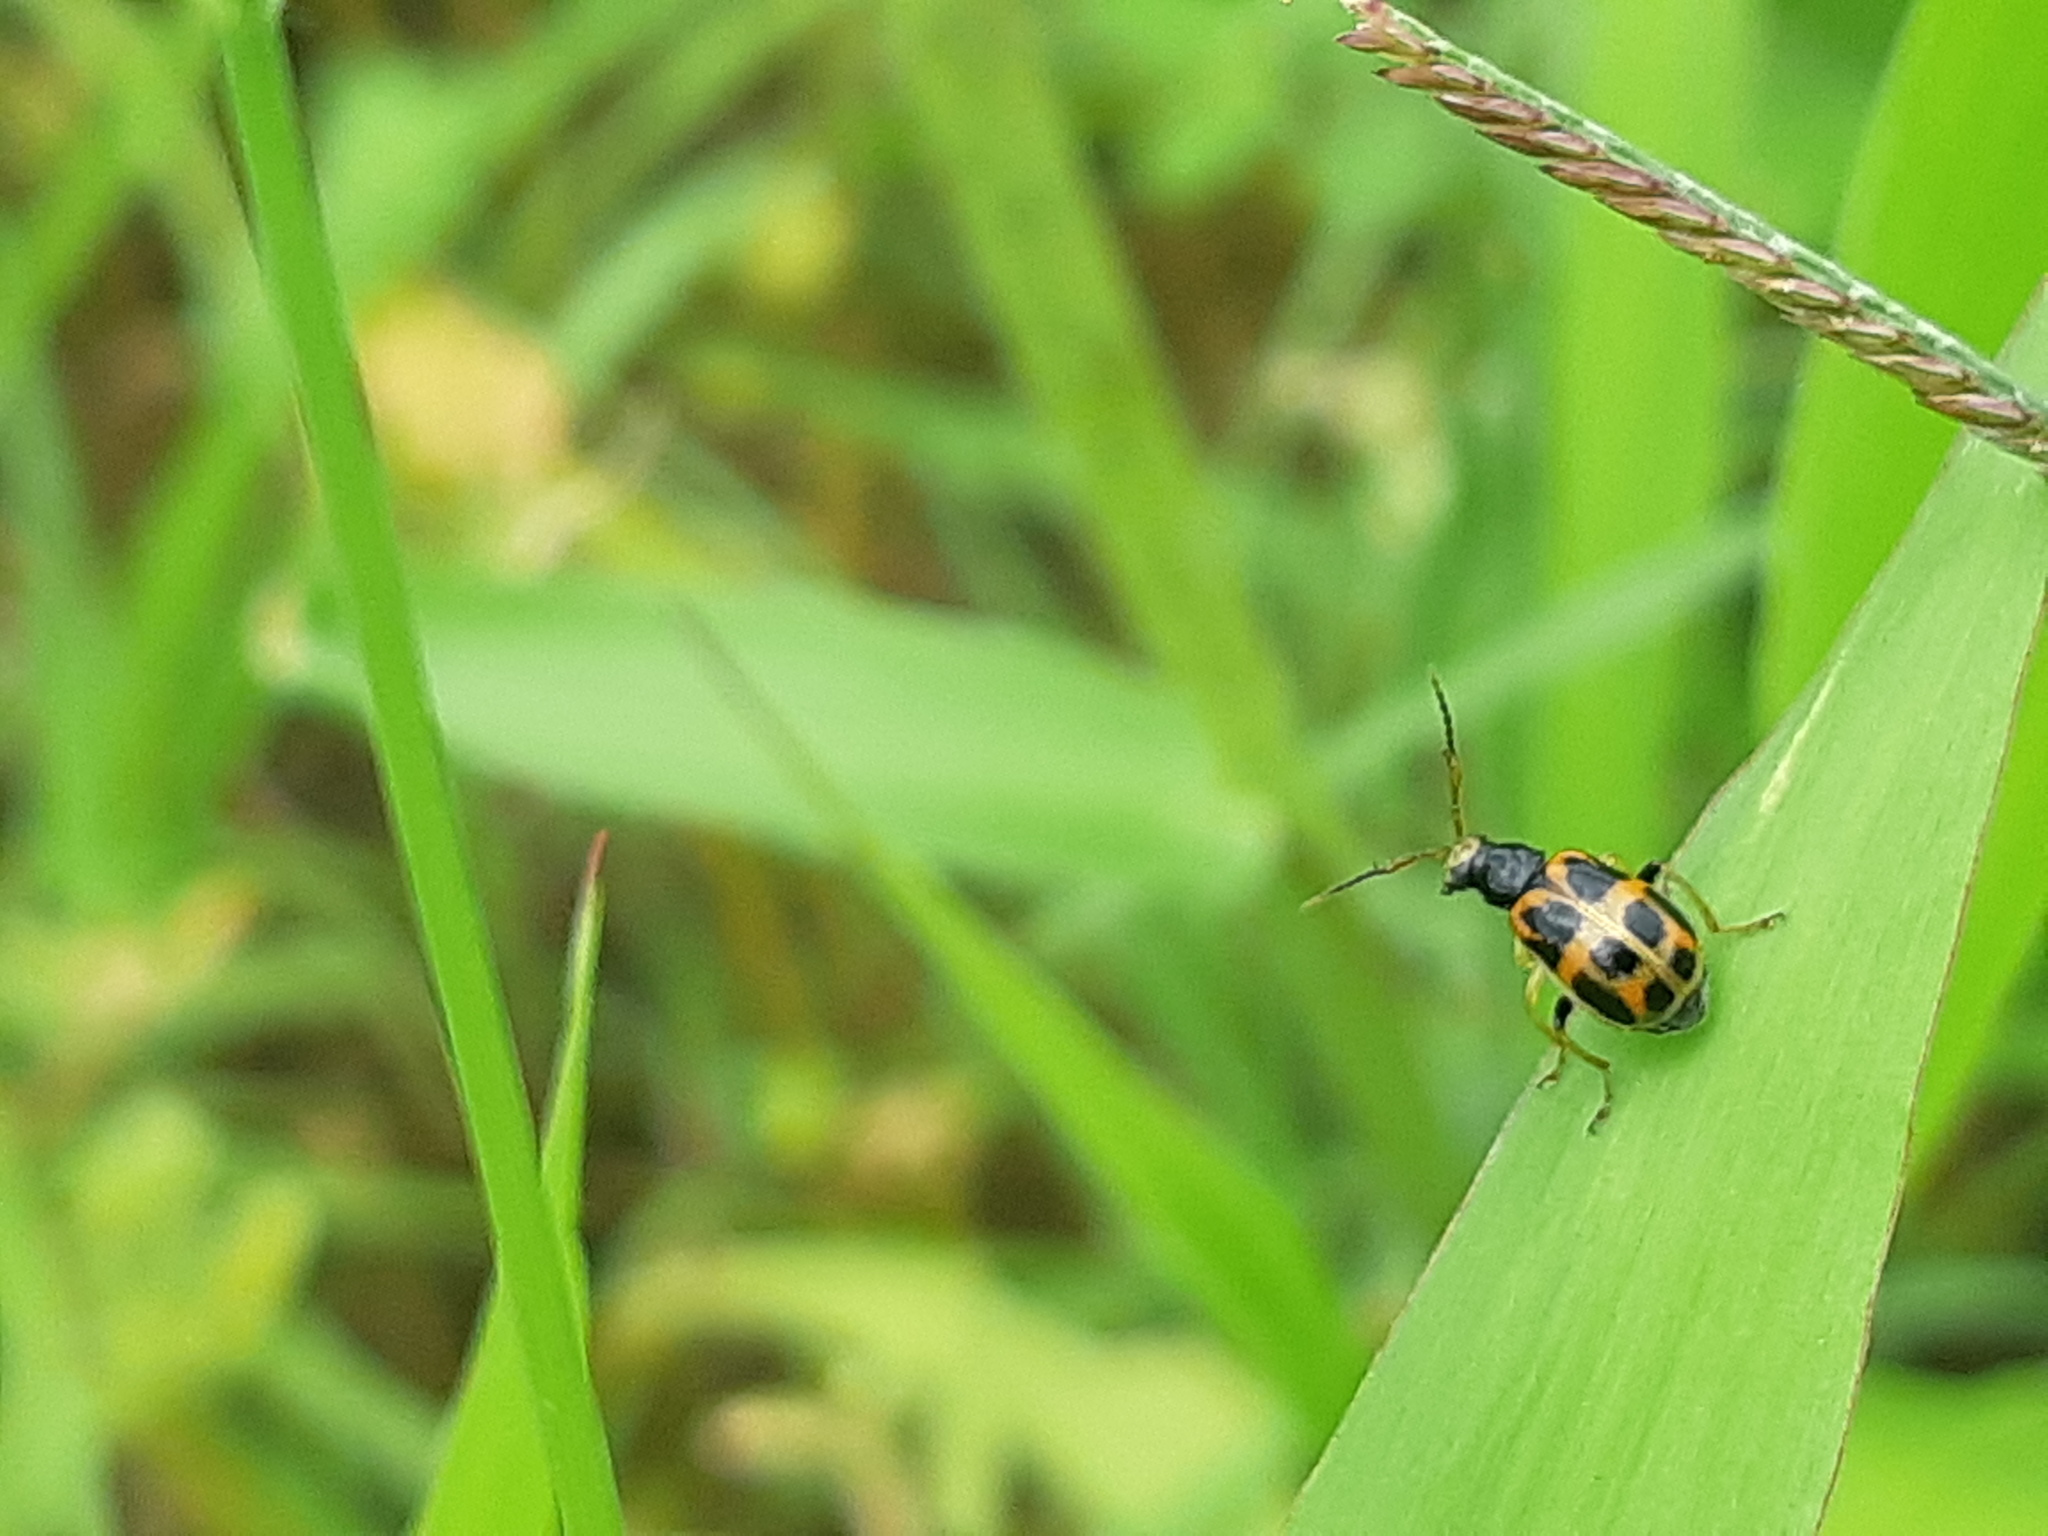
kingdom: Animalia
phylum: Arthropoda
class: Insecta
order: Coleoptera
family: Chrysomelidae
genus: Cerotoma
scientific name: Cerotoma
